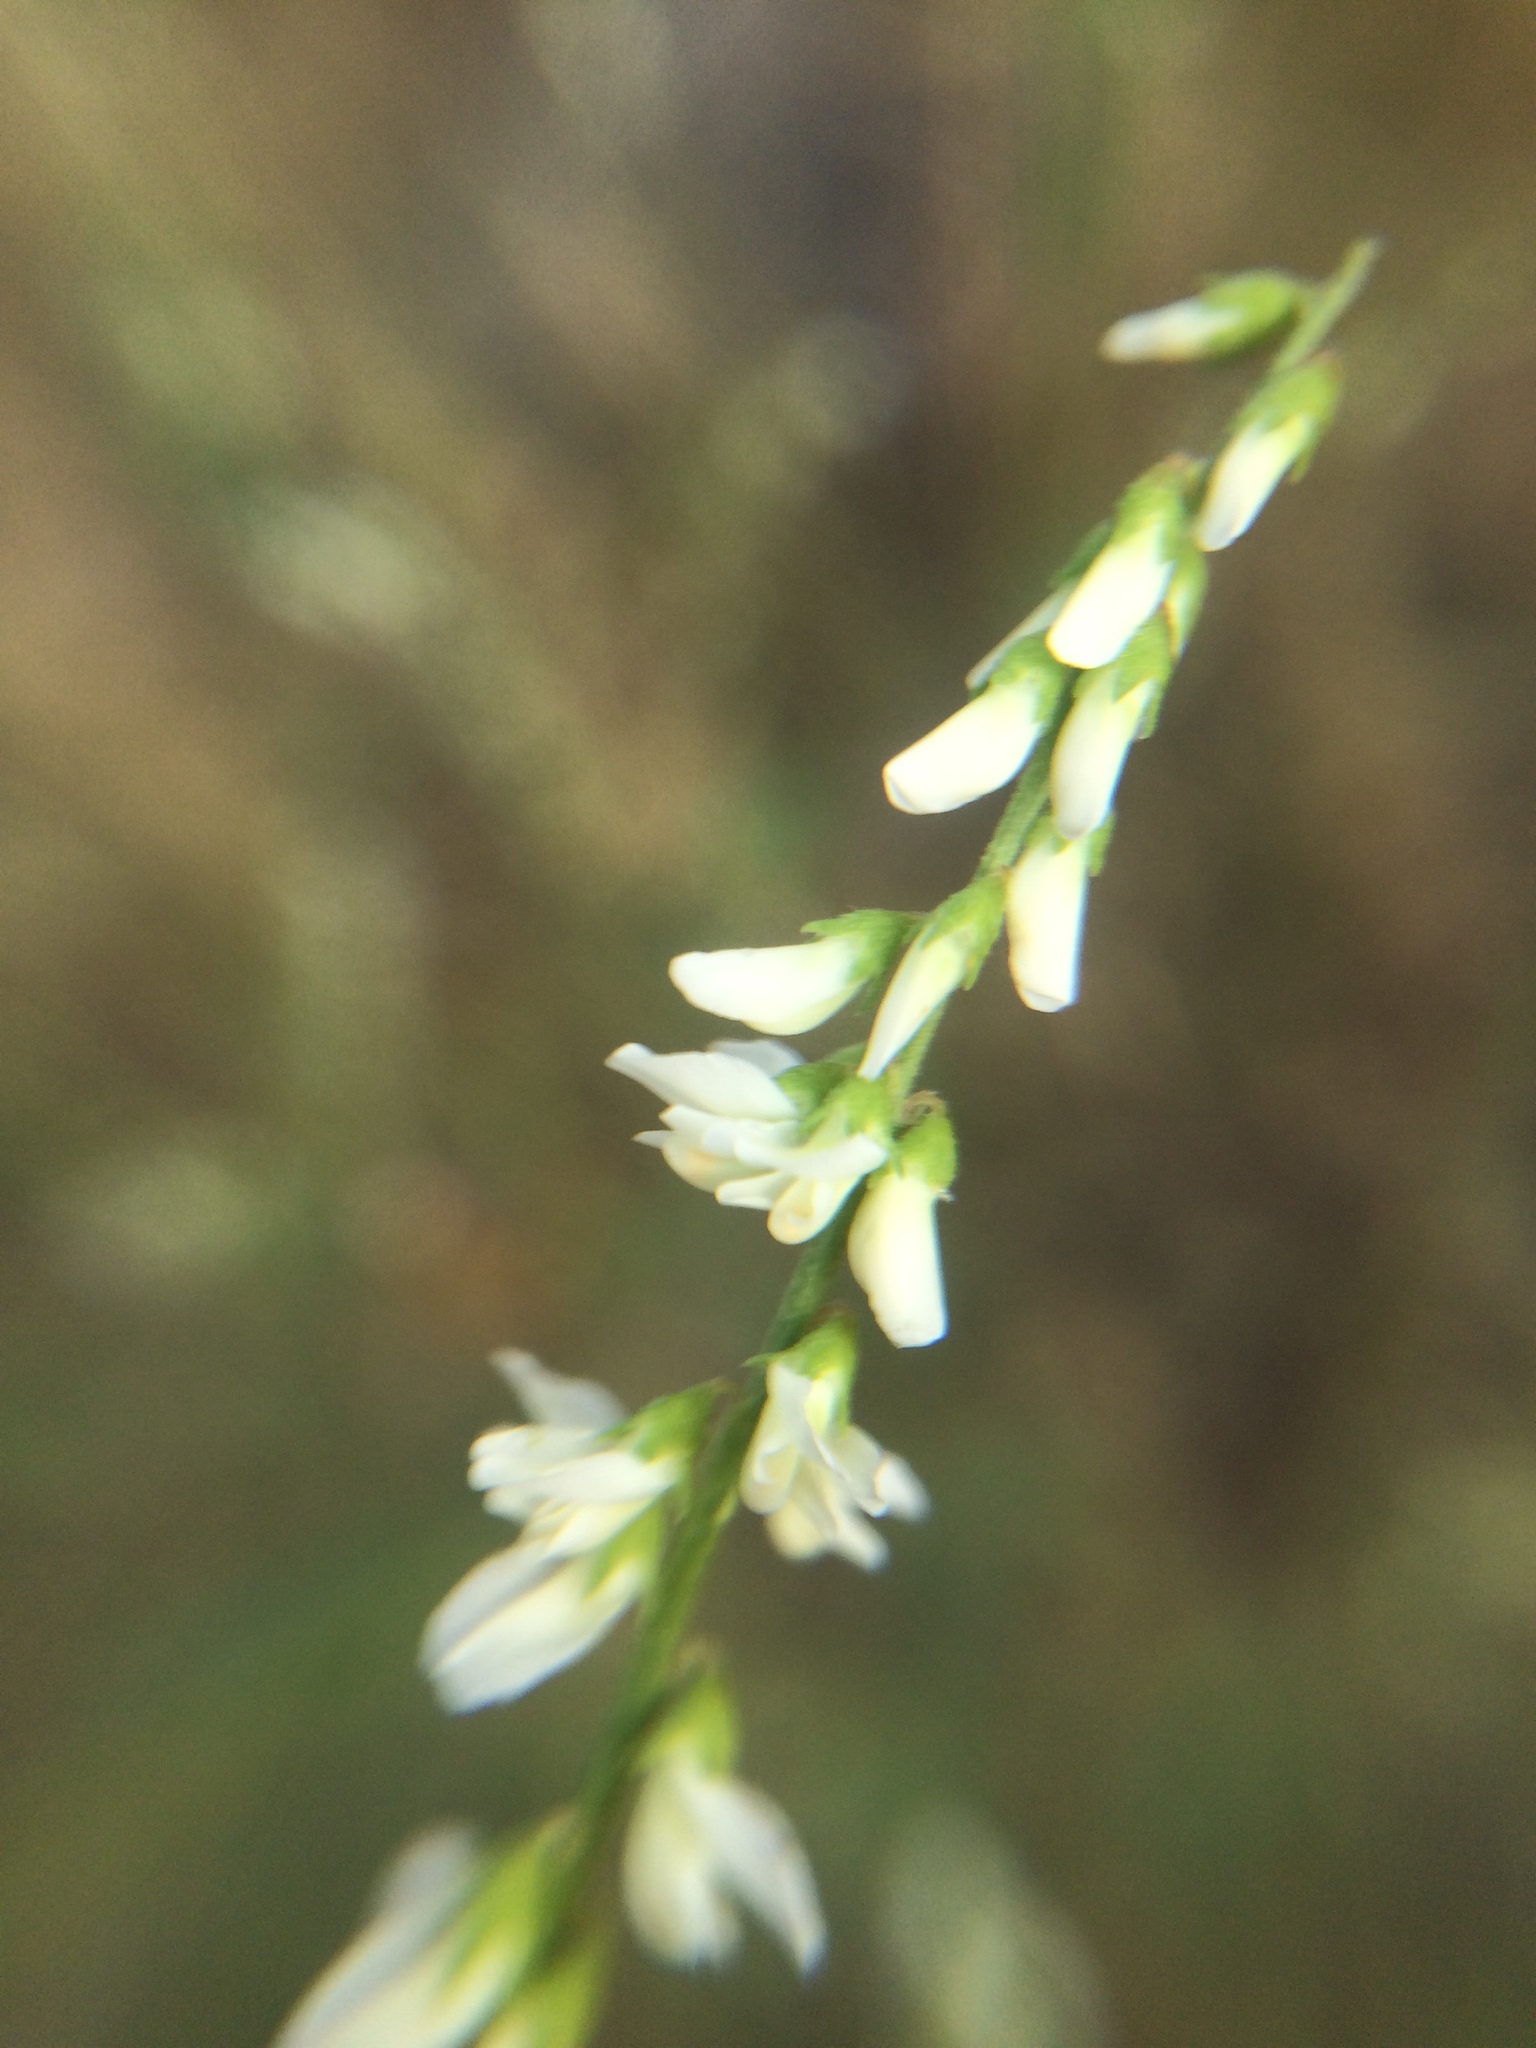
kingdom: Plantae
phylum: Tracheophyta
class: Magnoliopsida
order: Fabales
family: Fabaceae
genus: Melilotus
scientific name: Melilotus albus
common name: White melilot
